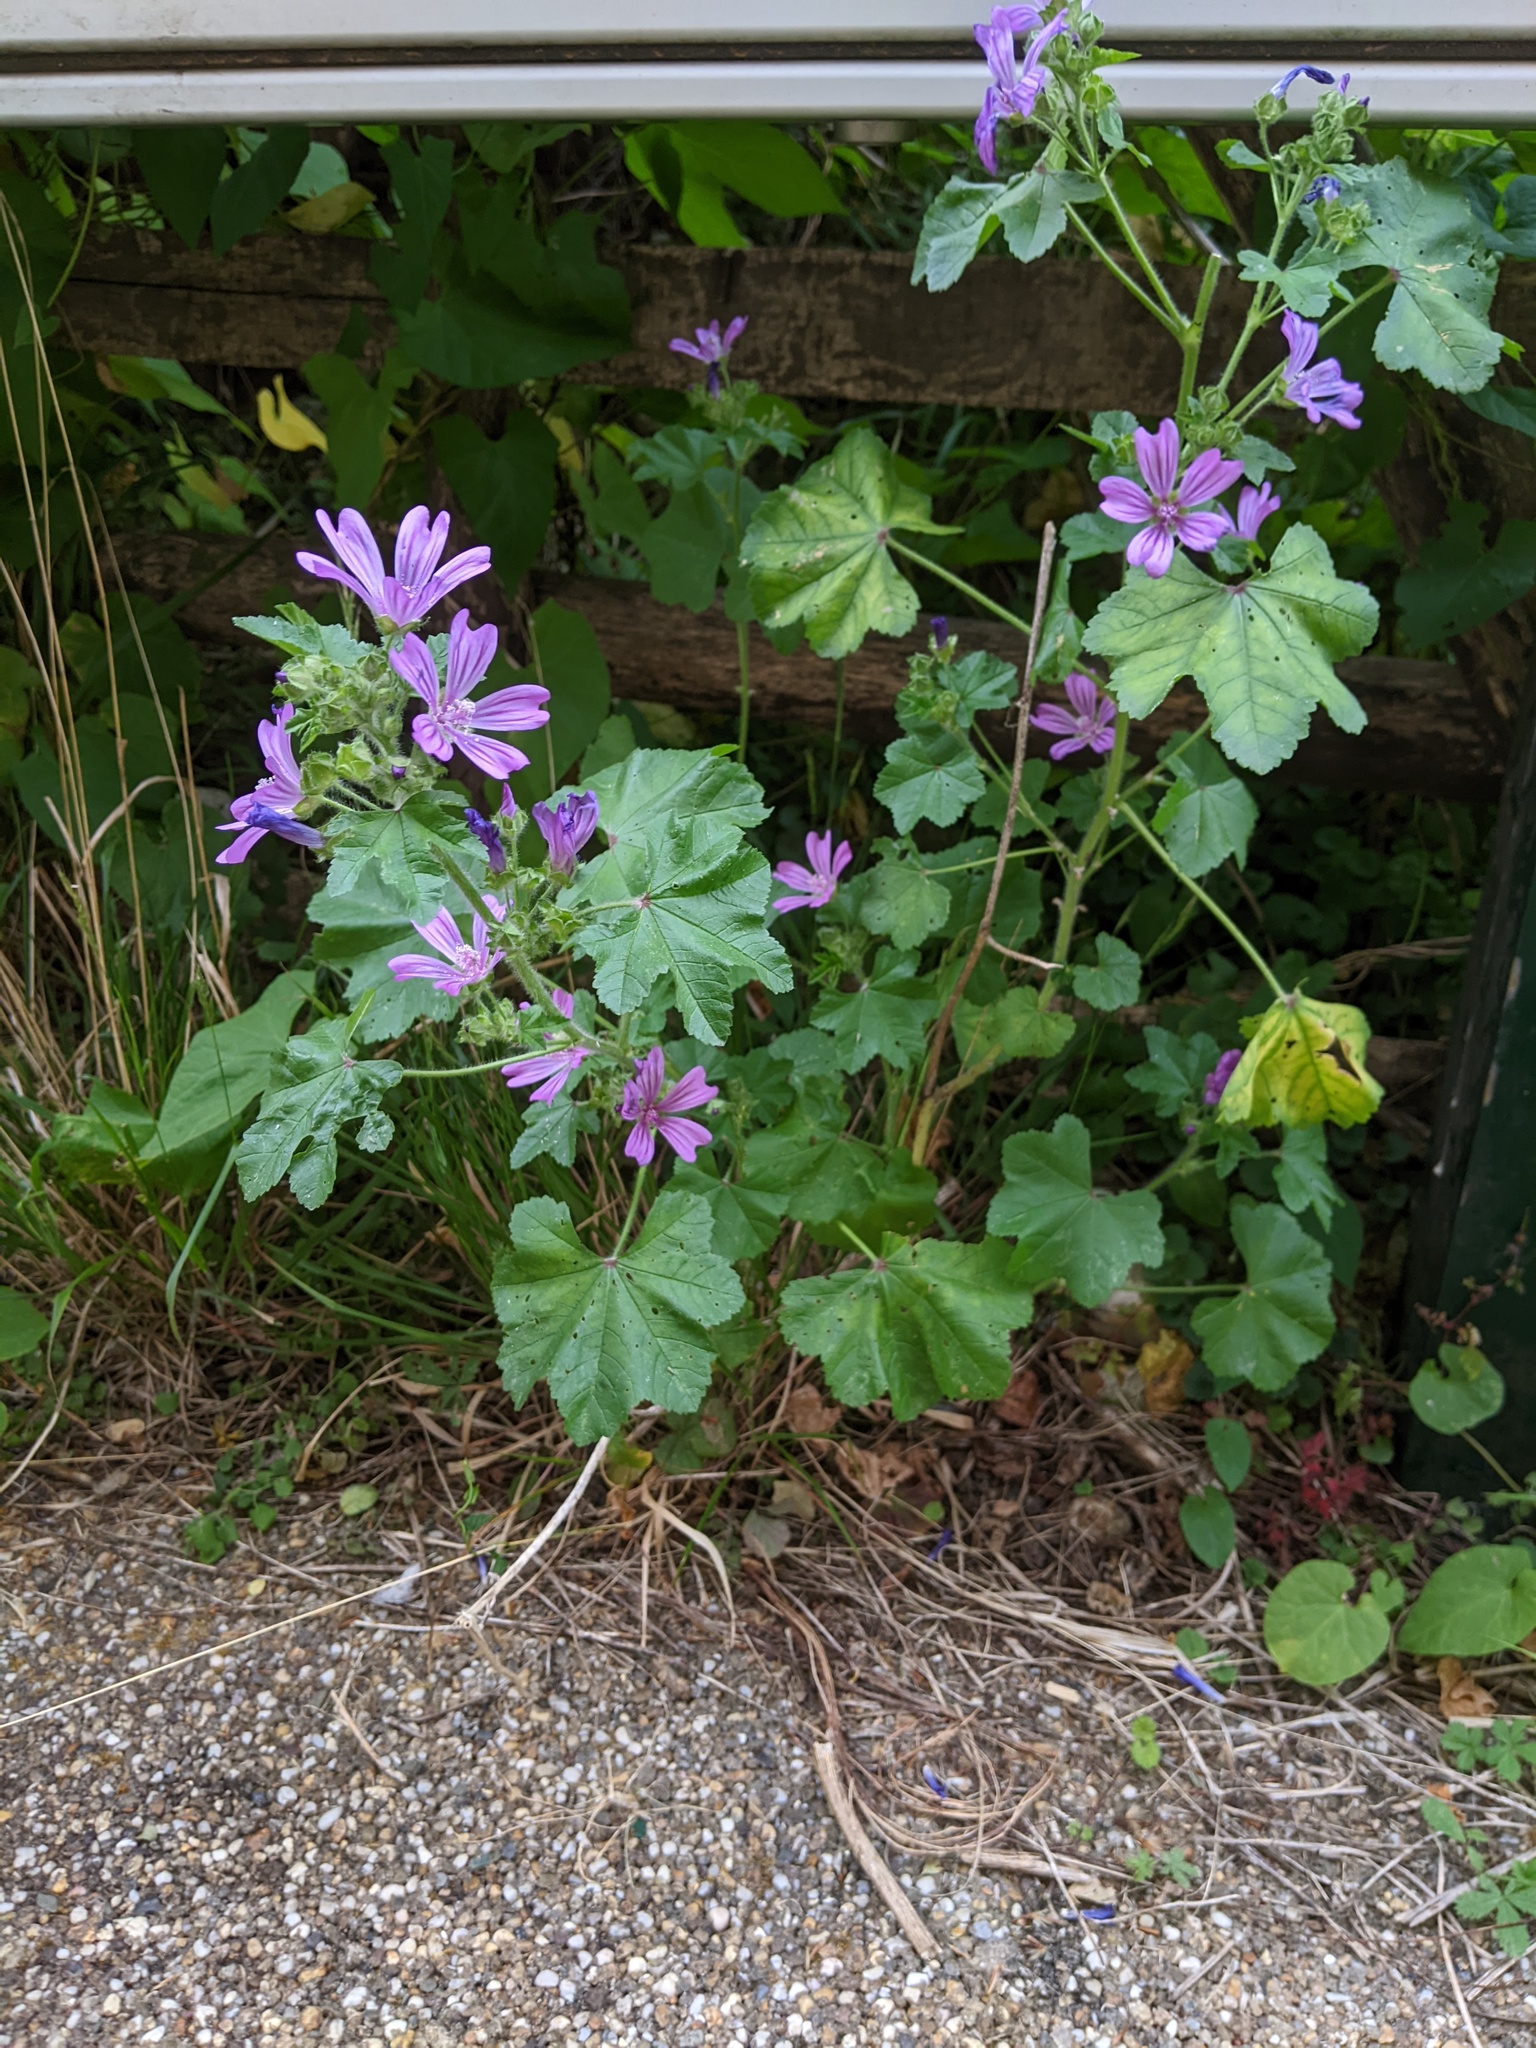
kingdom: Plantae
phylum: Tracheophyta
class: Magnoliopsida
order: Malvales
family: Malvaceae
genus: Malva
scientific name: Malva sylvestris
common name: Common mallow
